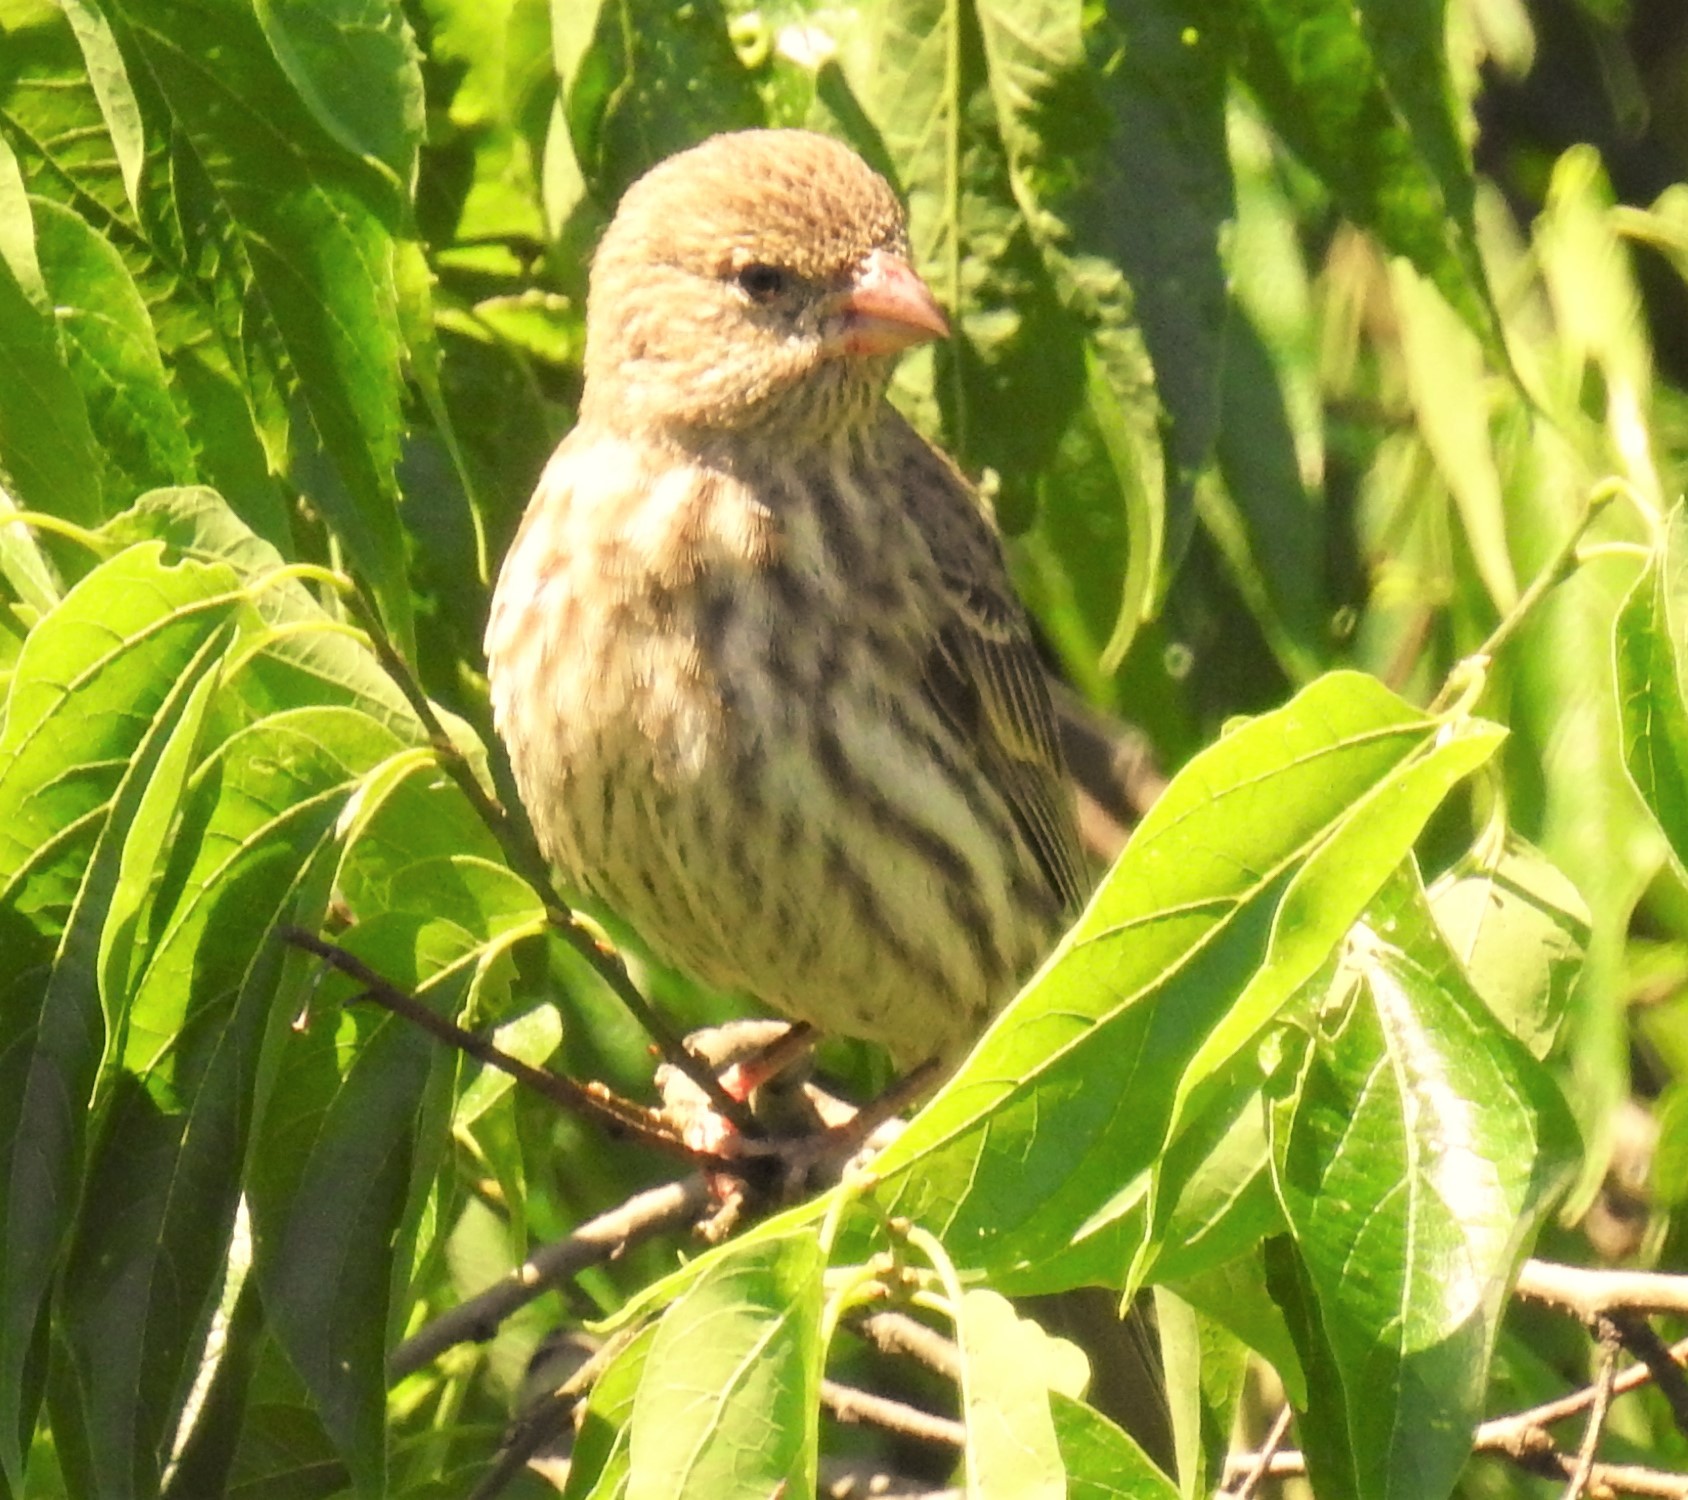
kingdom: Animalia
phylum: Chordata
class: Aves
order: Passeriformes
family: Fringillidae
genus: Haemorhous
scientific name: Haemorhous mexicanus
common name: House finch
